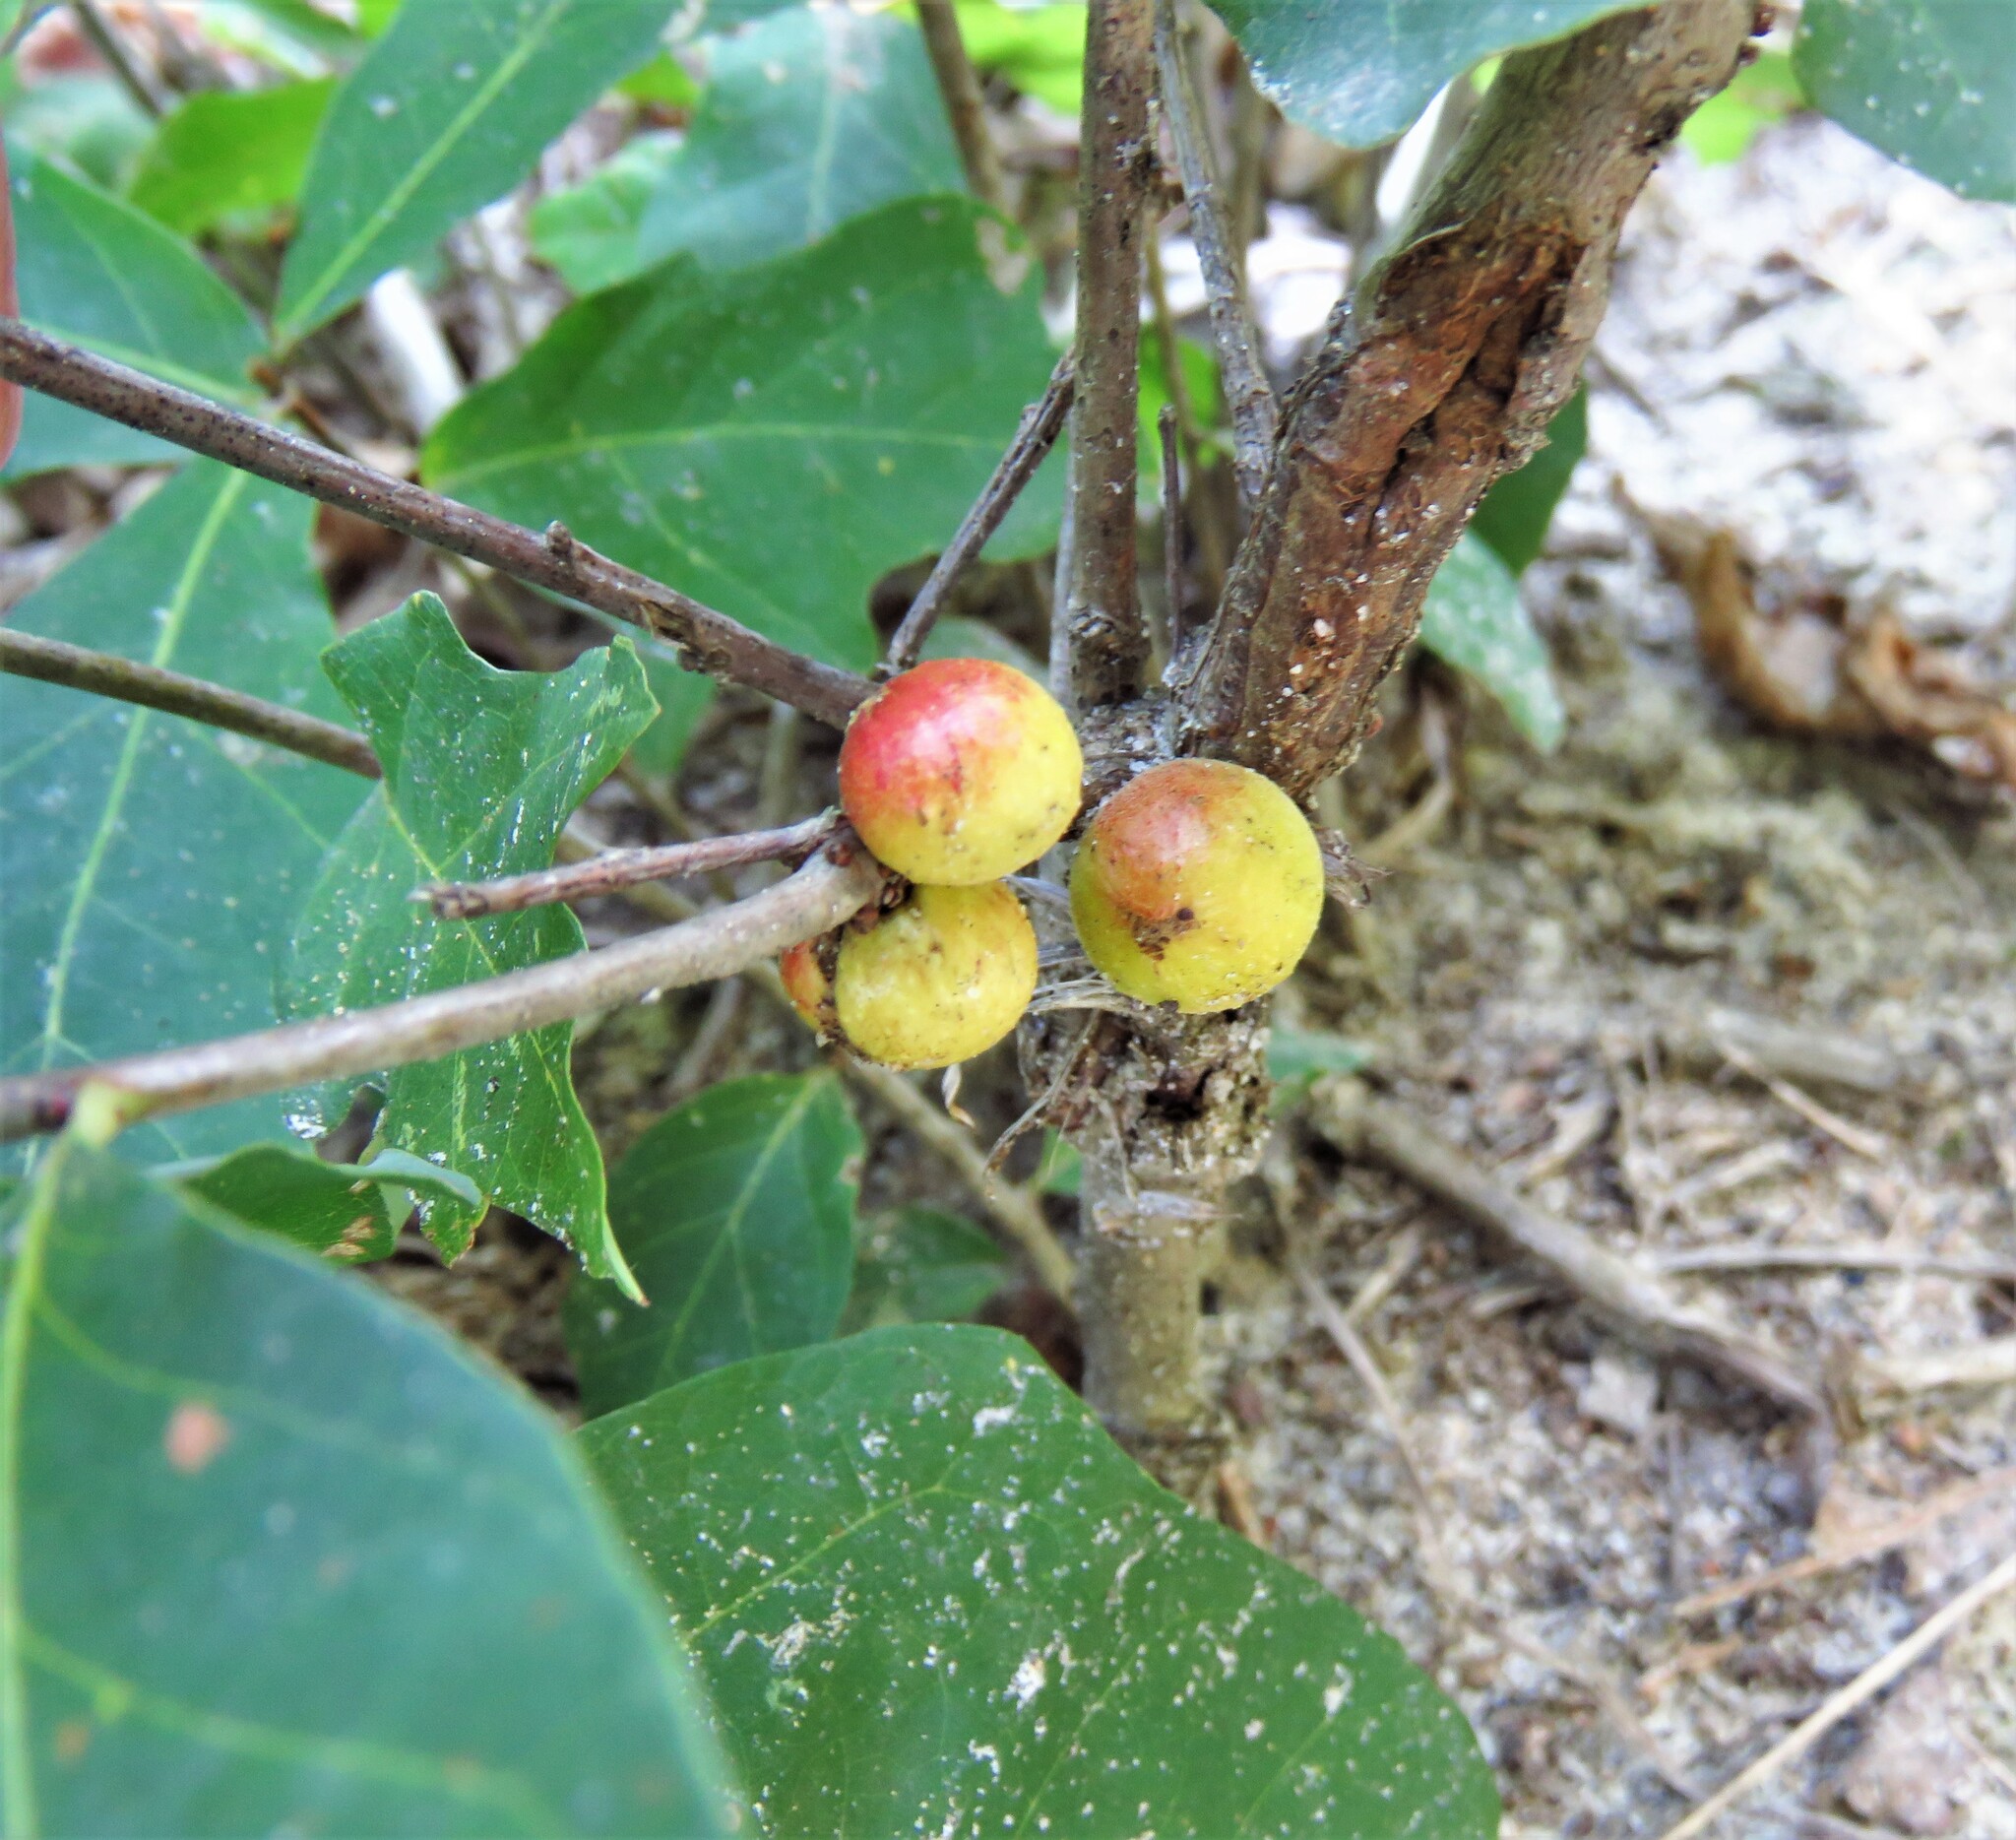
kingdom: Animalia
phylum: Arthropoda
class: Insecta
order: Hymenoptera
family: Cynipidae
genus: Disholcaspis
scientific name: Disholcaspis quercusglobulus
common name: Round bullet gall wasp
